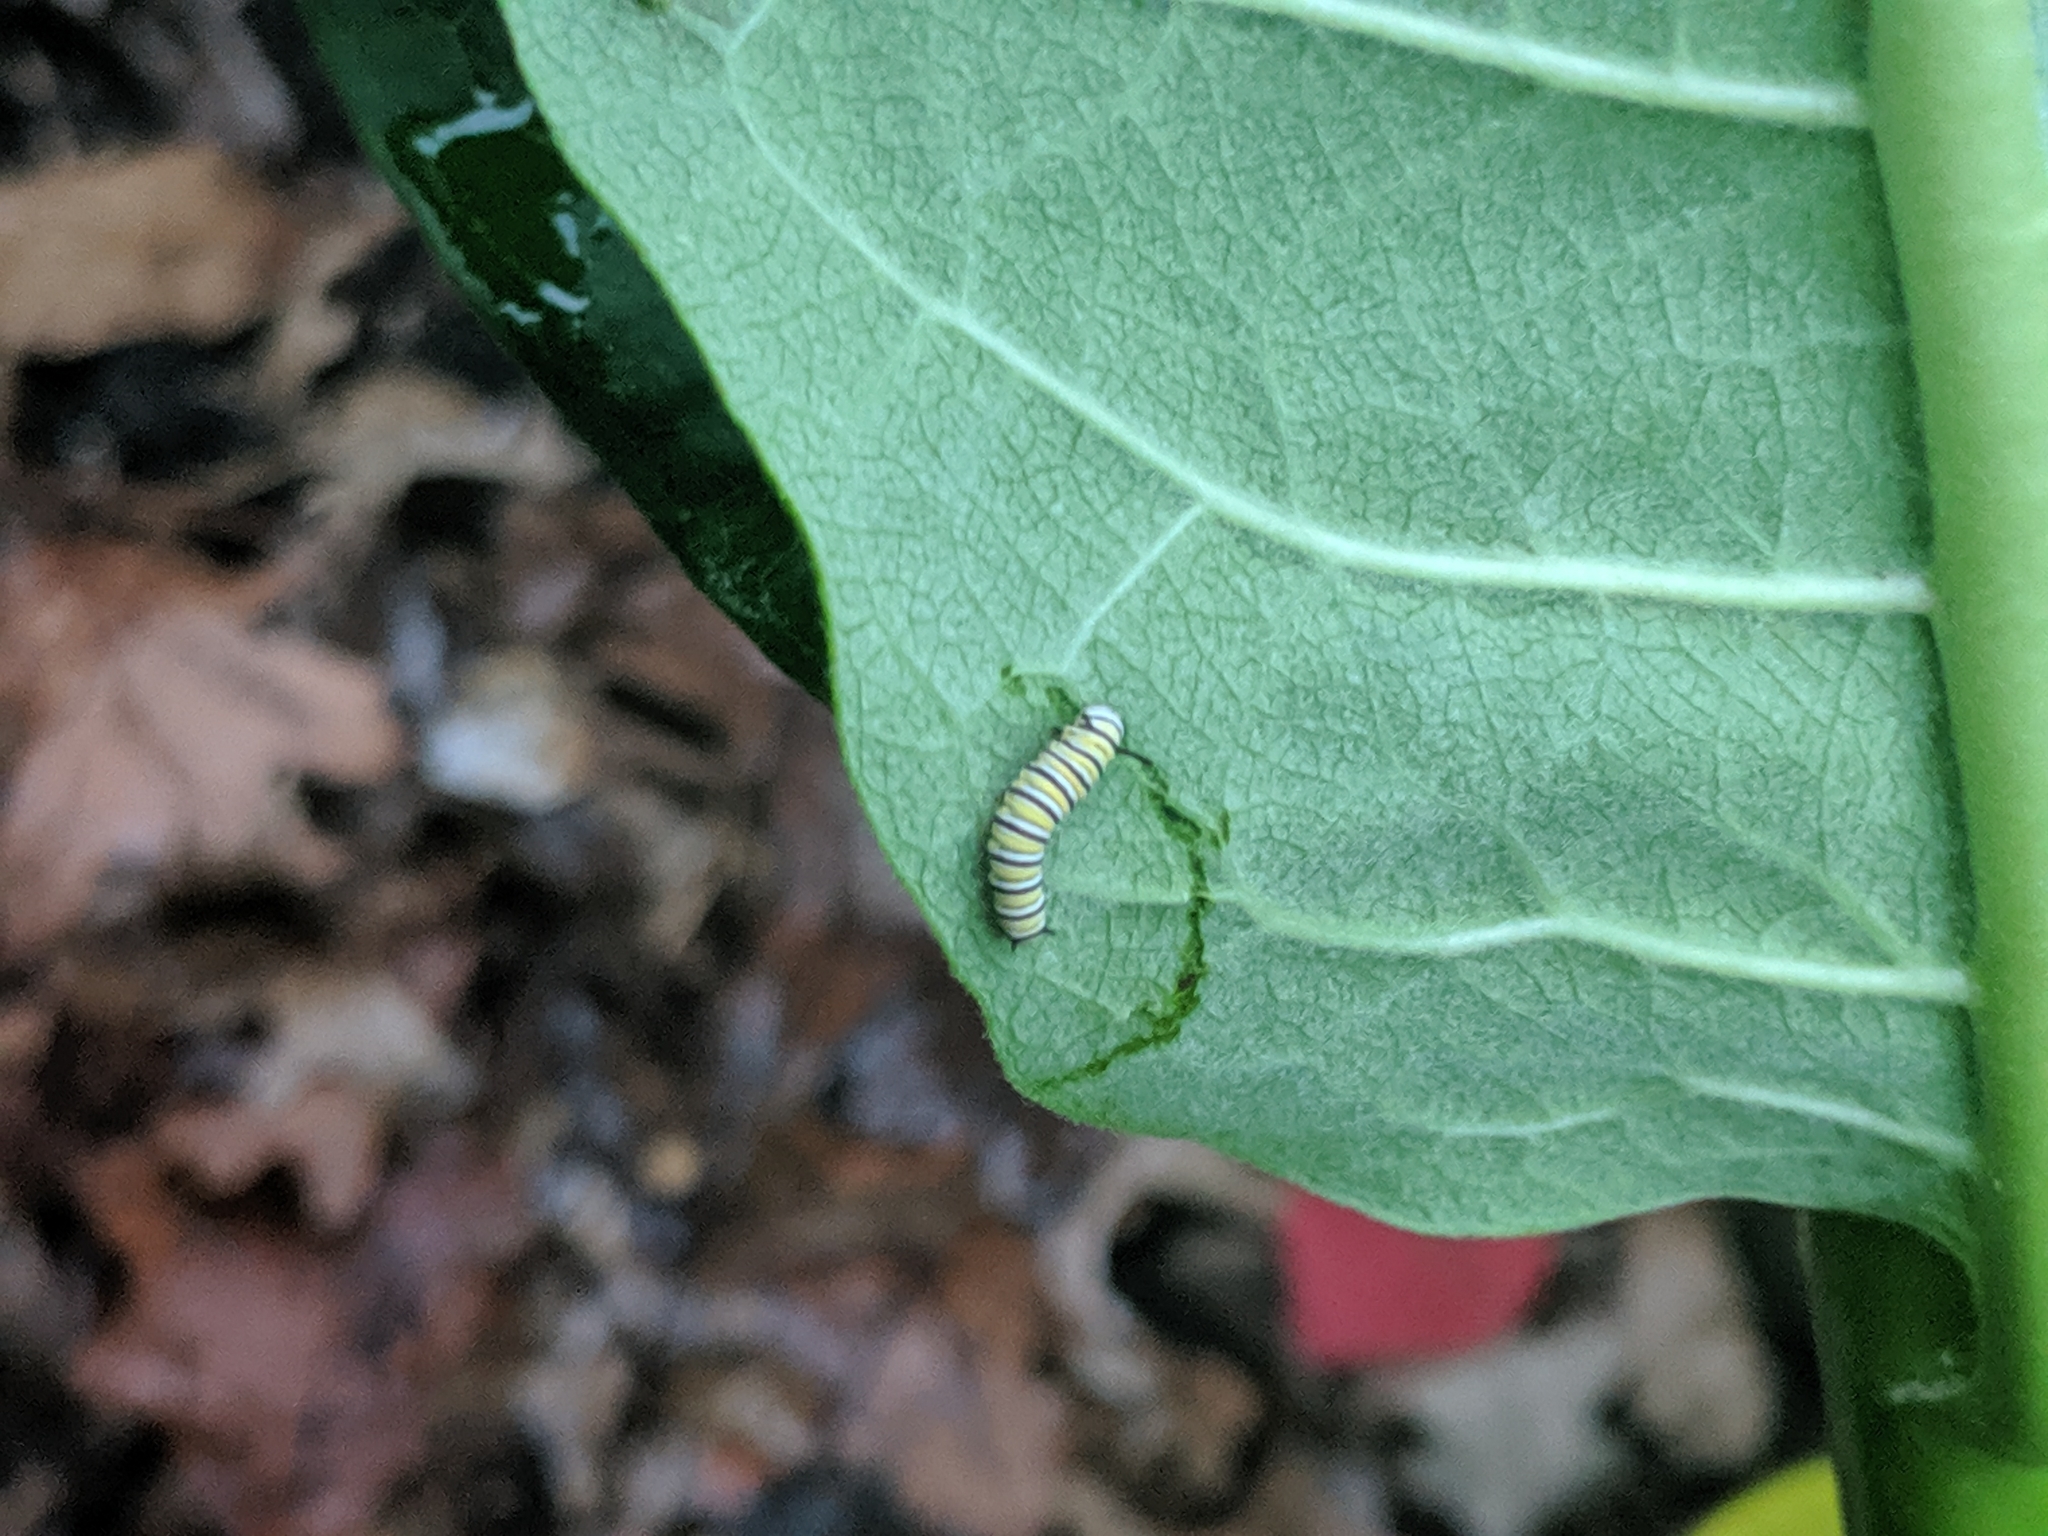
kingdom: Animalia
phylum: Arthropoda
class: Insecta
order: Lepidoptera
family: Nymphalidae
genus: Danaus
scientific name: Danaus plexippus
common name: Monarch
